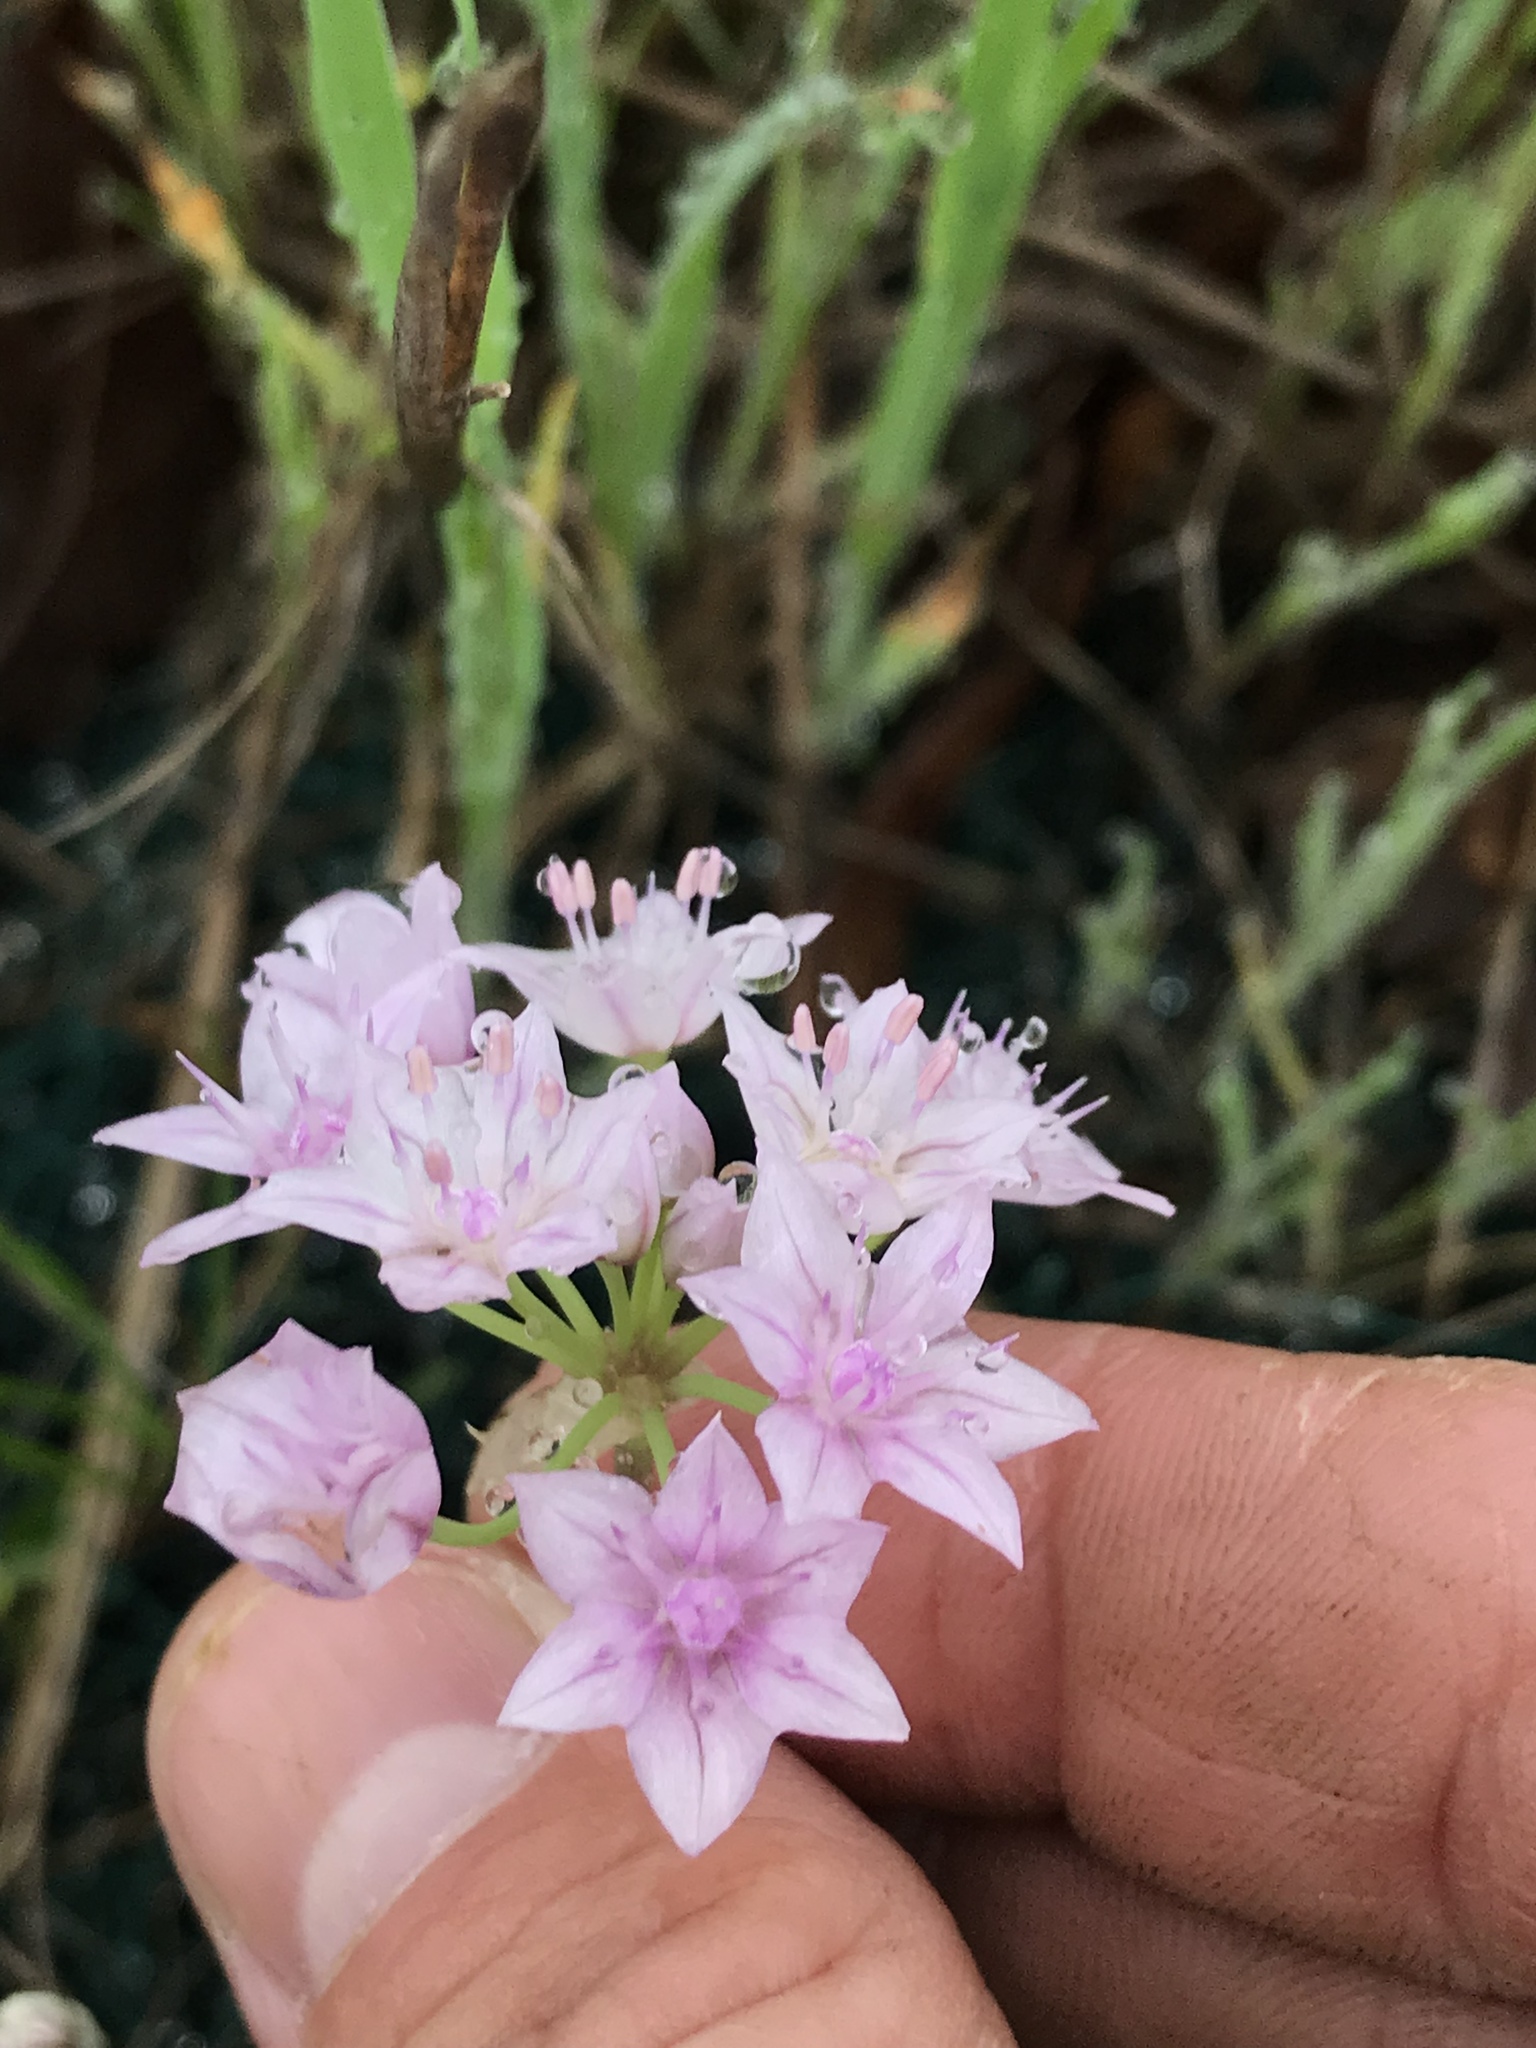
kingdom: Plantae
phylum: Tracheophyta
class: Liliopsida
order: Asparagales
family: Amaryllidaceae
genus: Allium
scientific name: Allium drummondii
